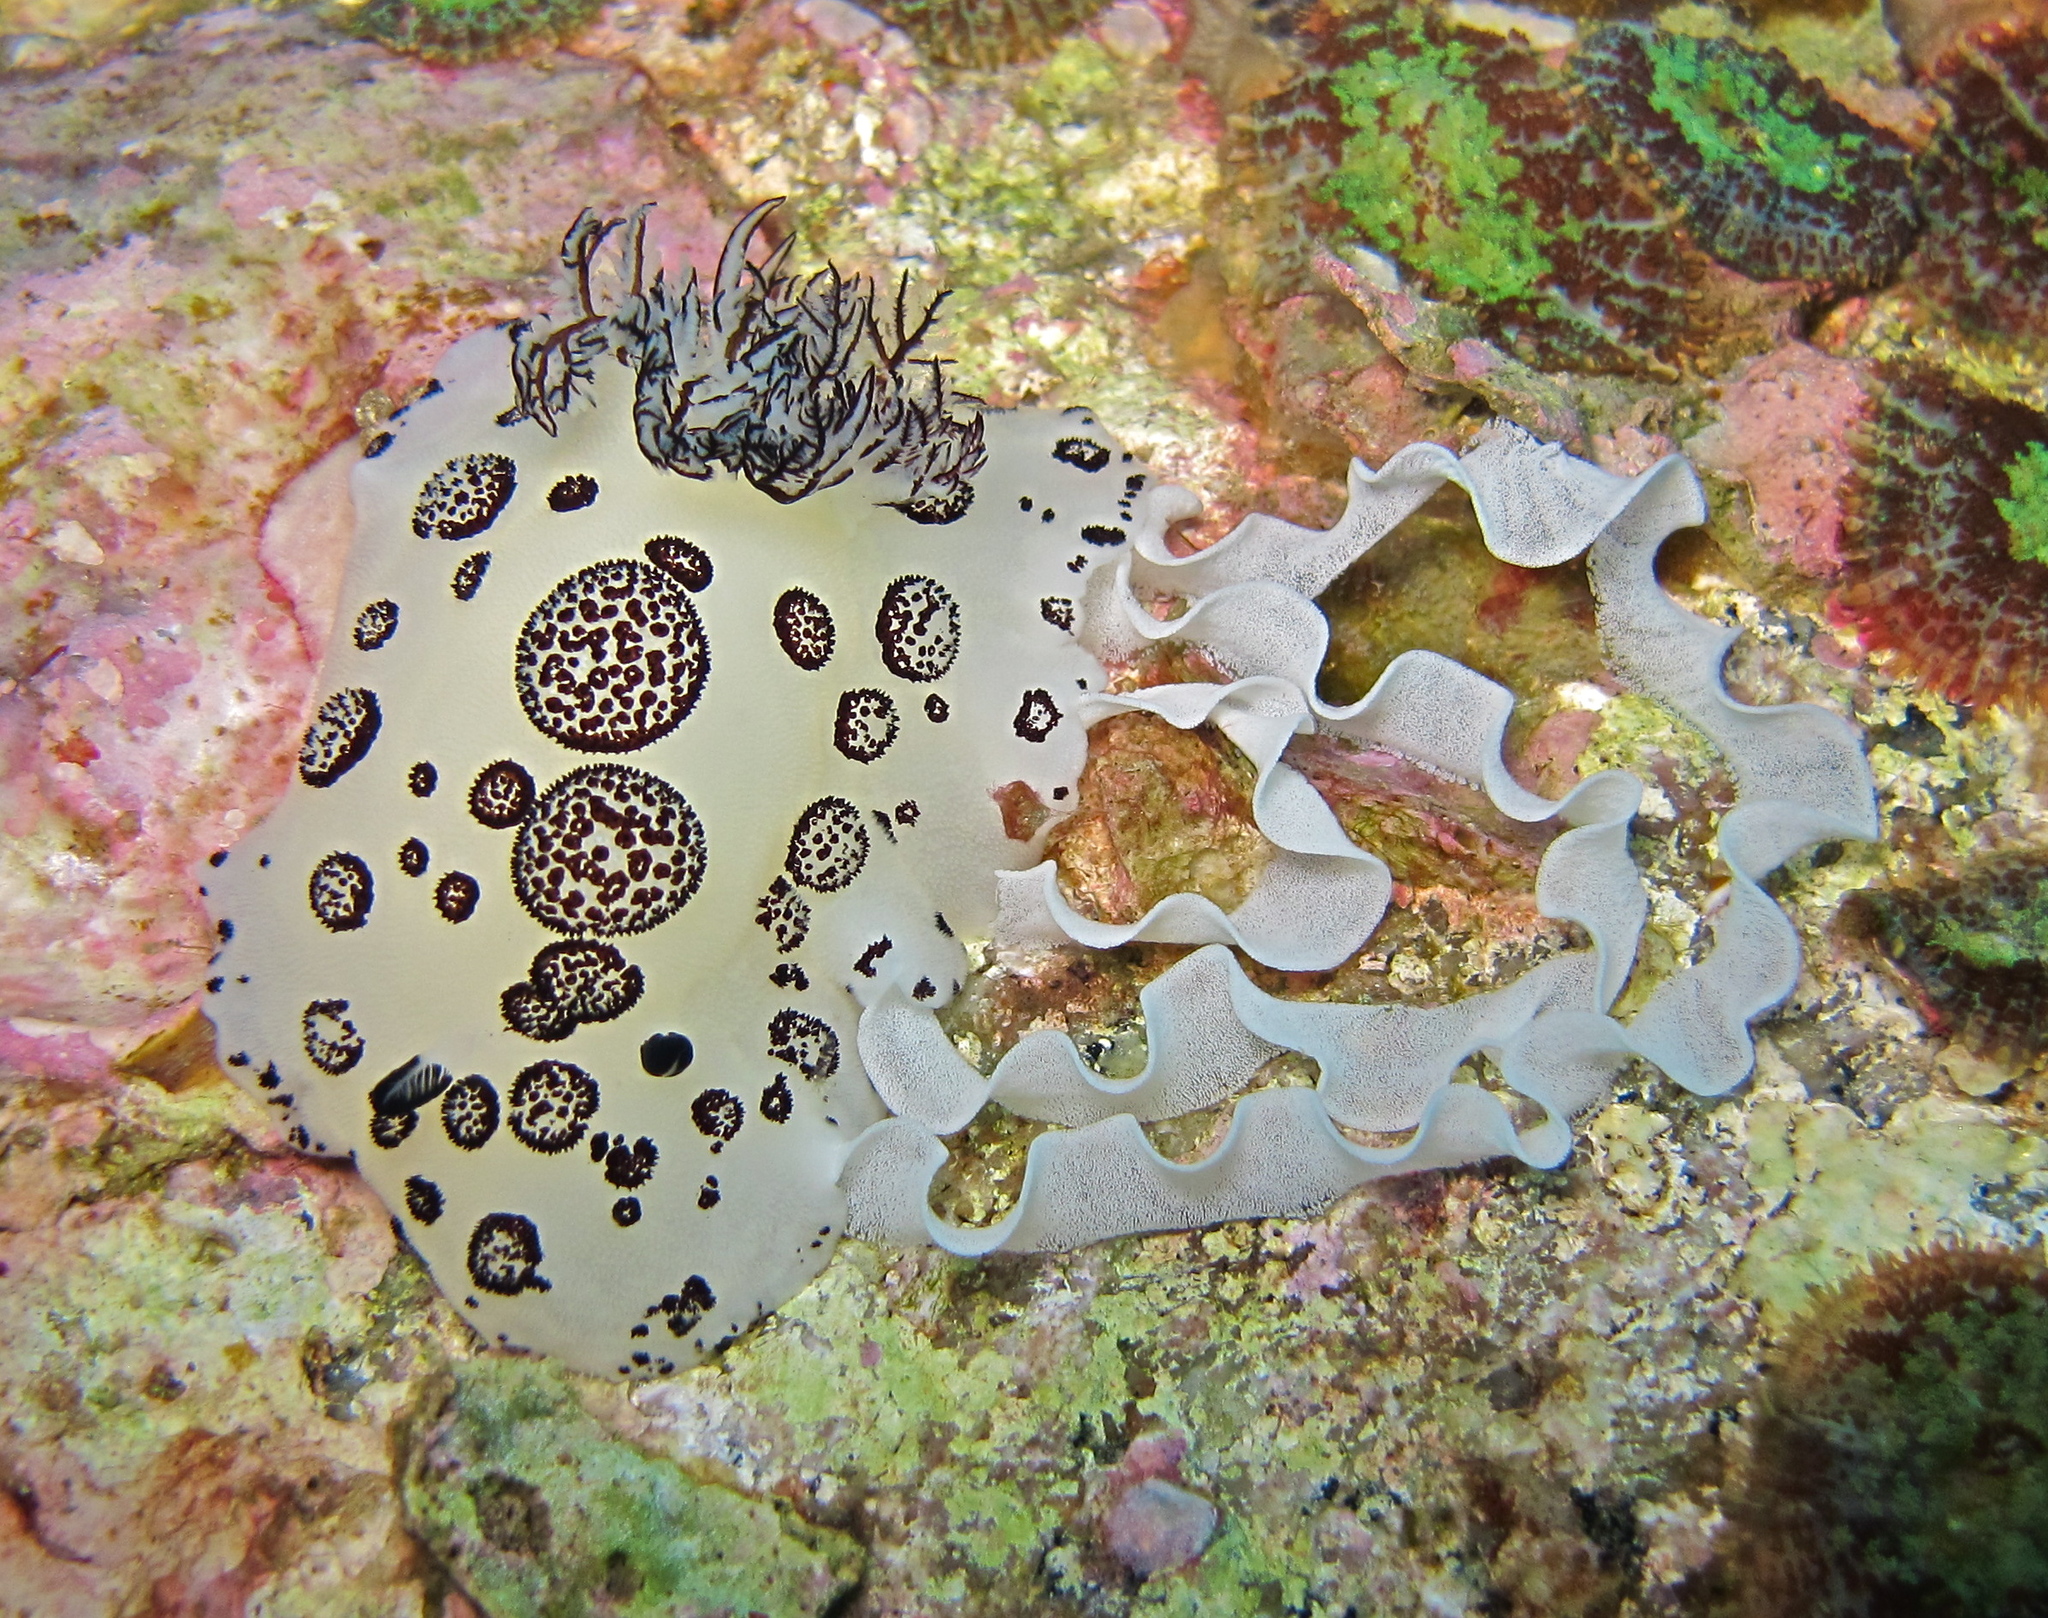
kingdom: Animalia
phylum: Mollusca
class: Gastropoda
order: Nudibranchia
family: Discodorididae
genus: Jorunna
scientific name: Jorunna funebris
